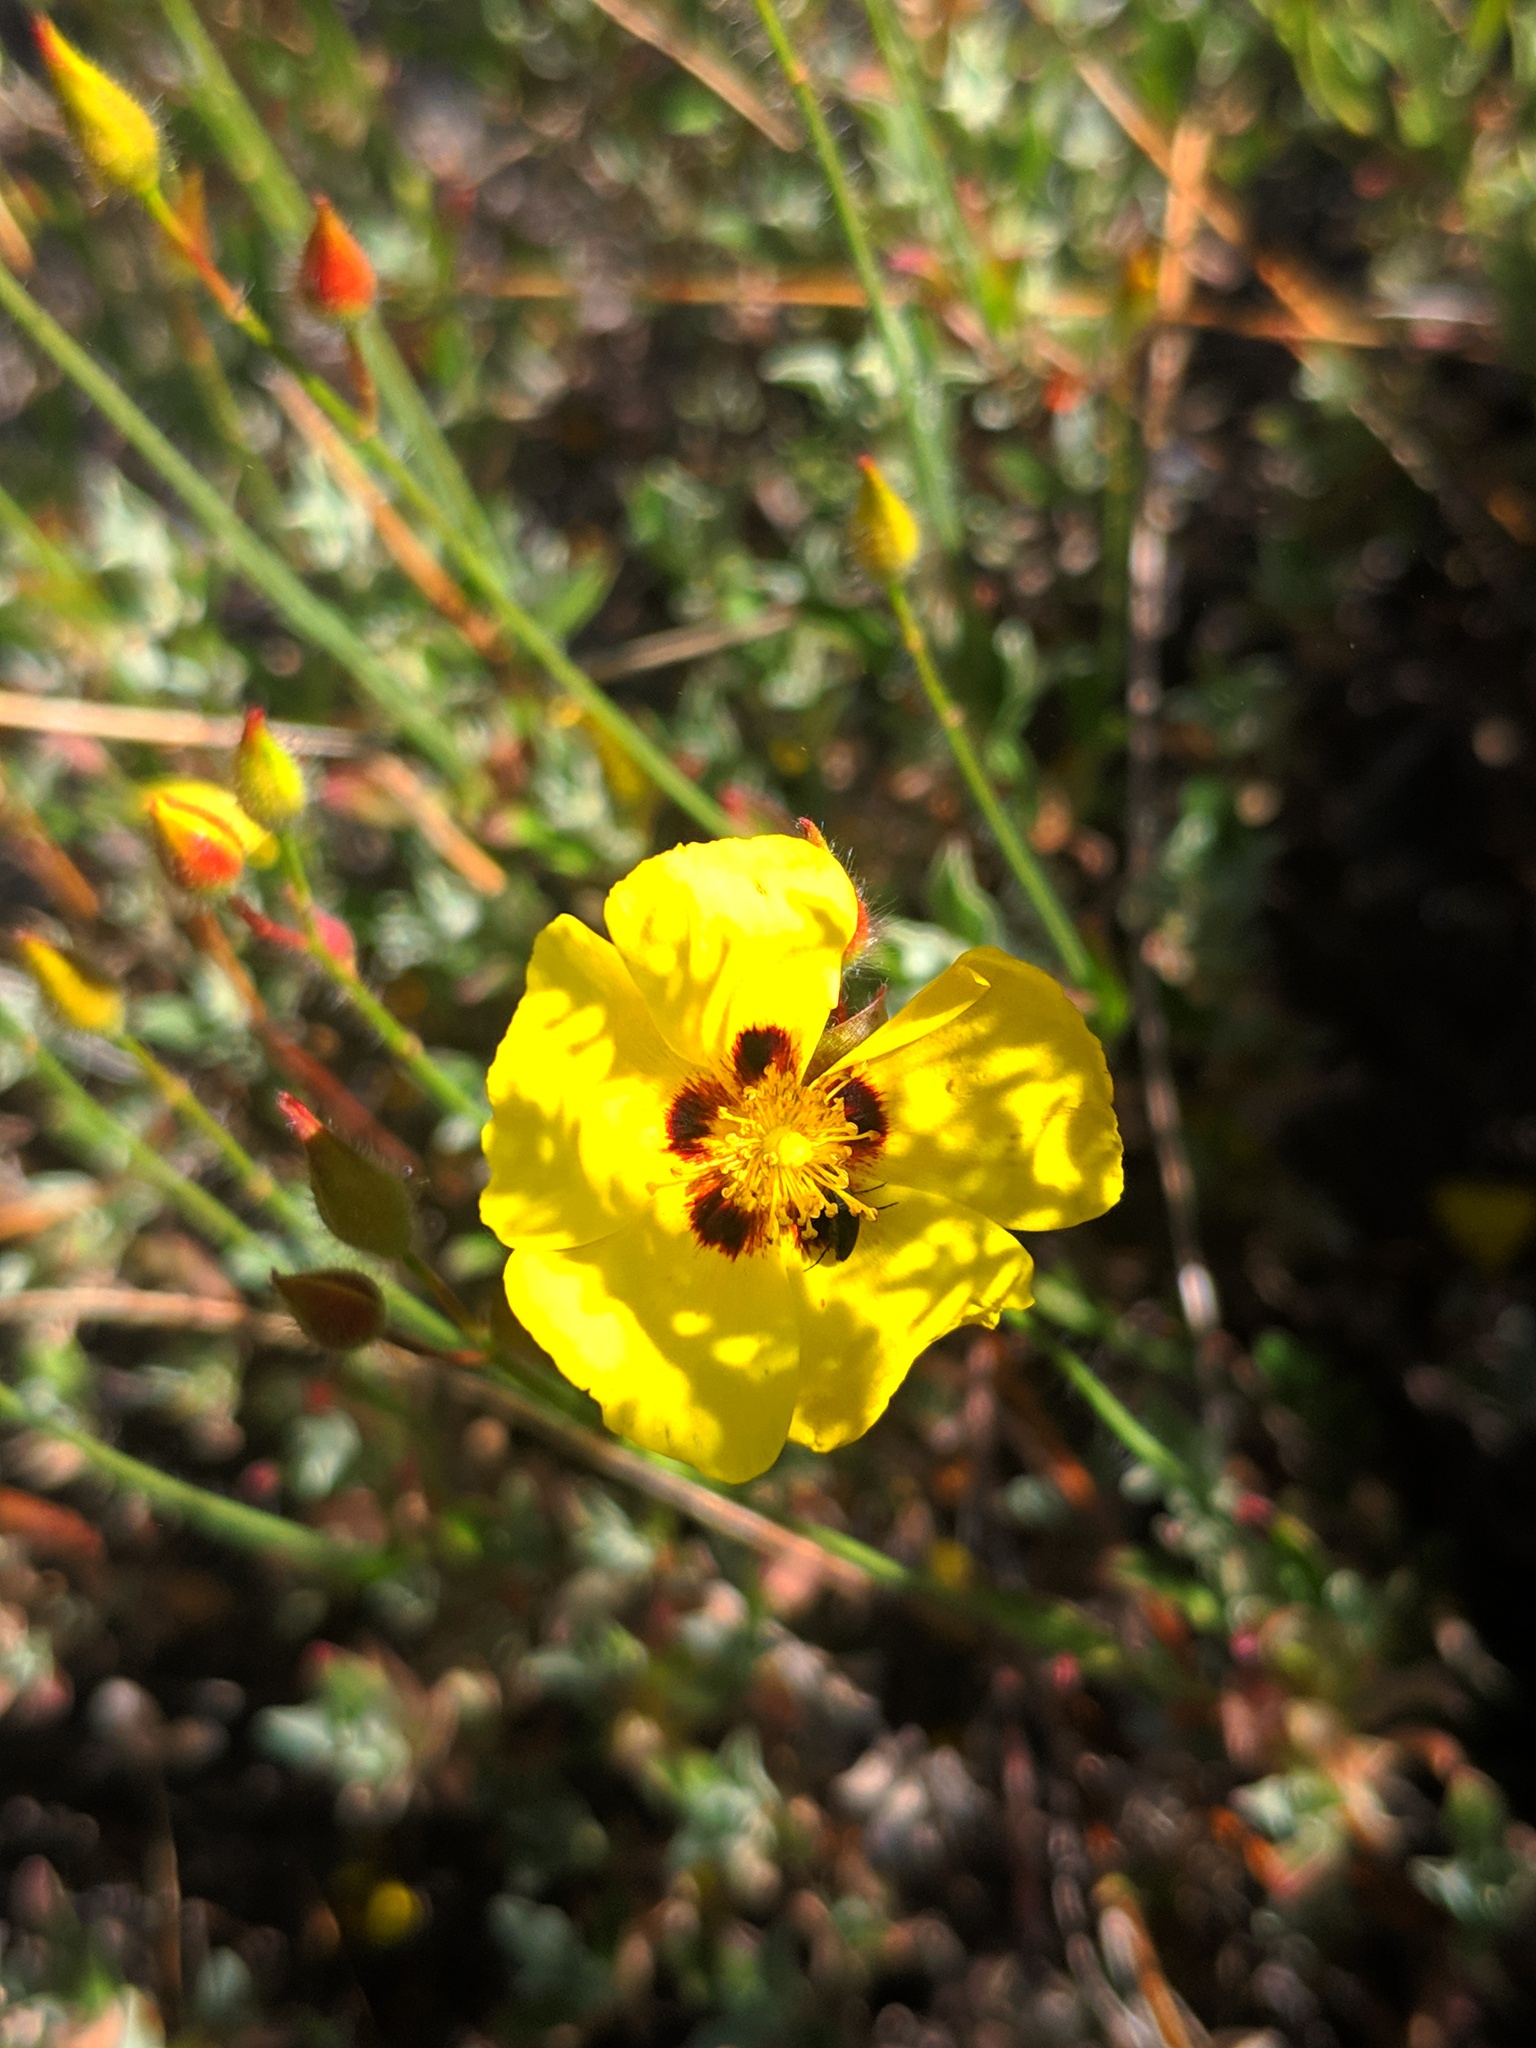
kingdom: Plantae
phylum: Tracheophyta
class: Magnoliopsida
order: Malvales
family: Cistaceae
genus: Cistus
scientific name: Cistus ocymoides
